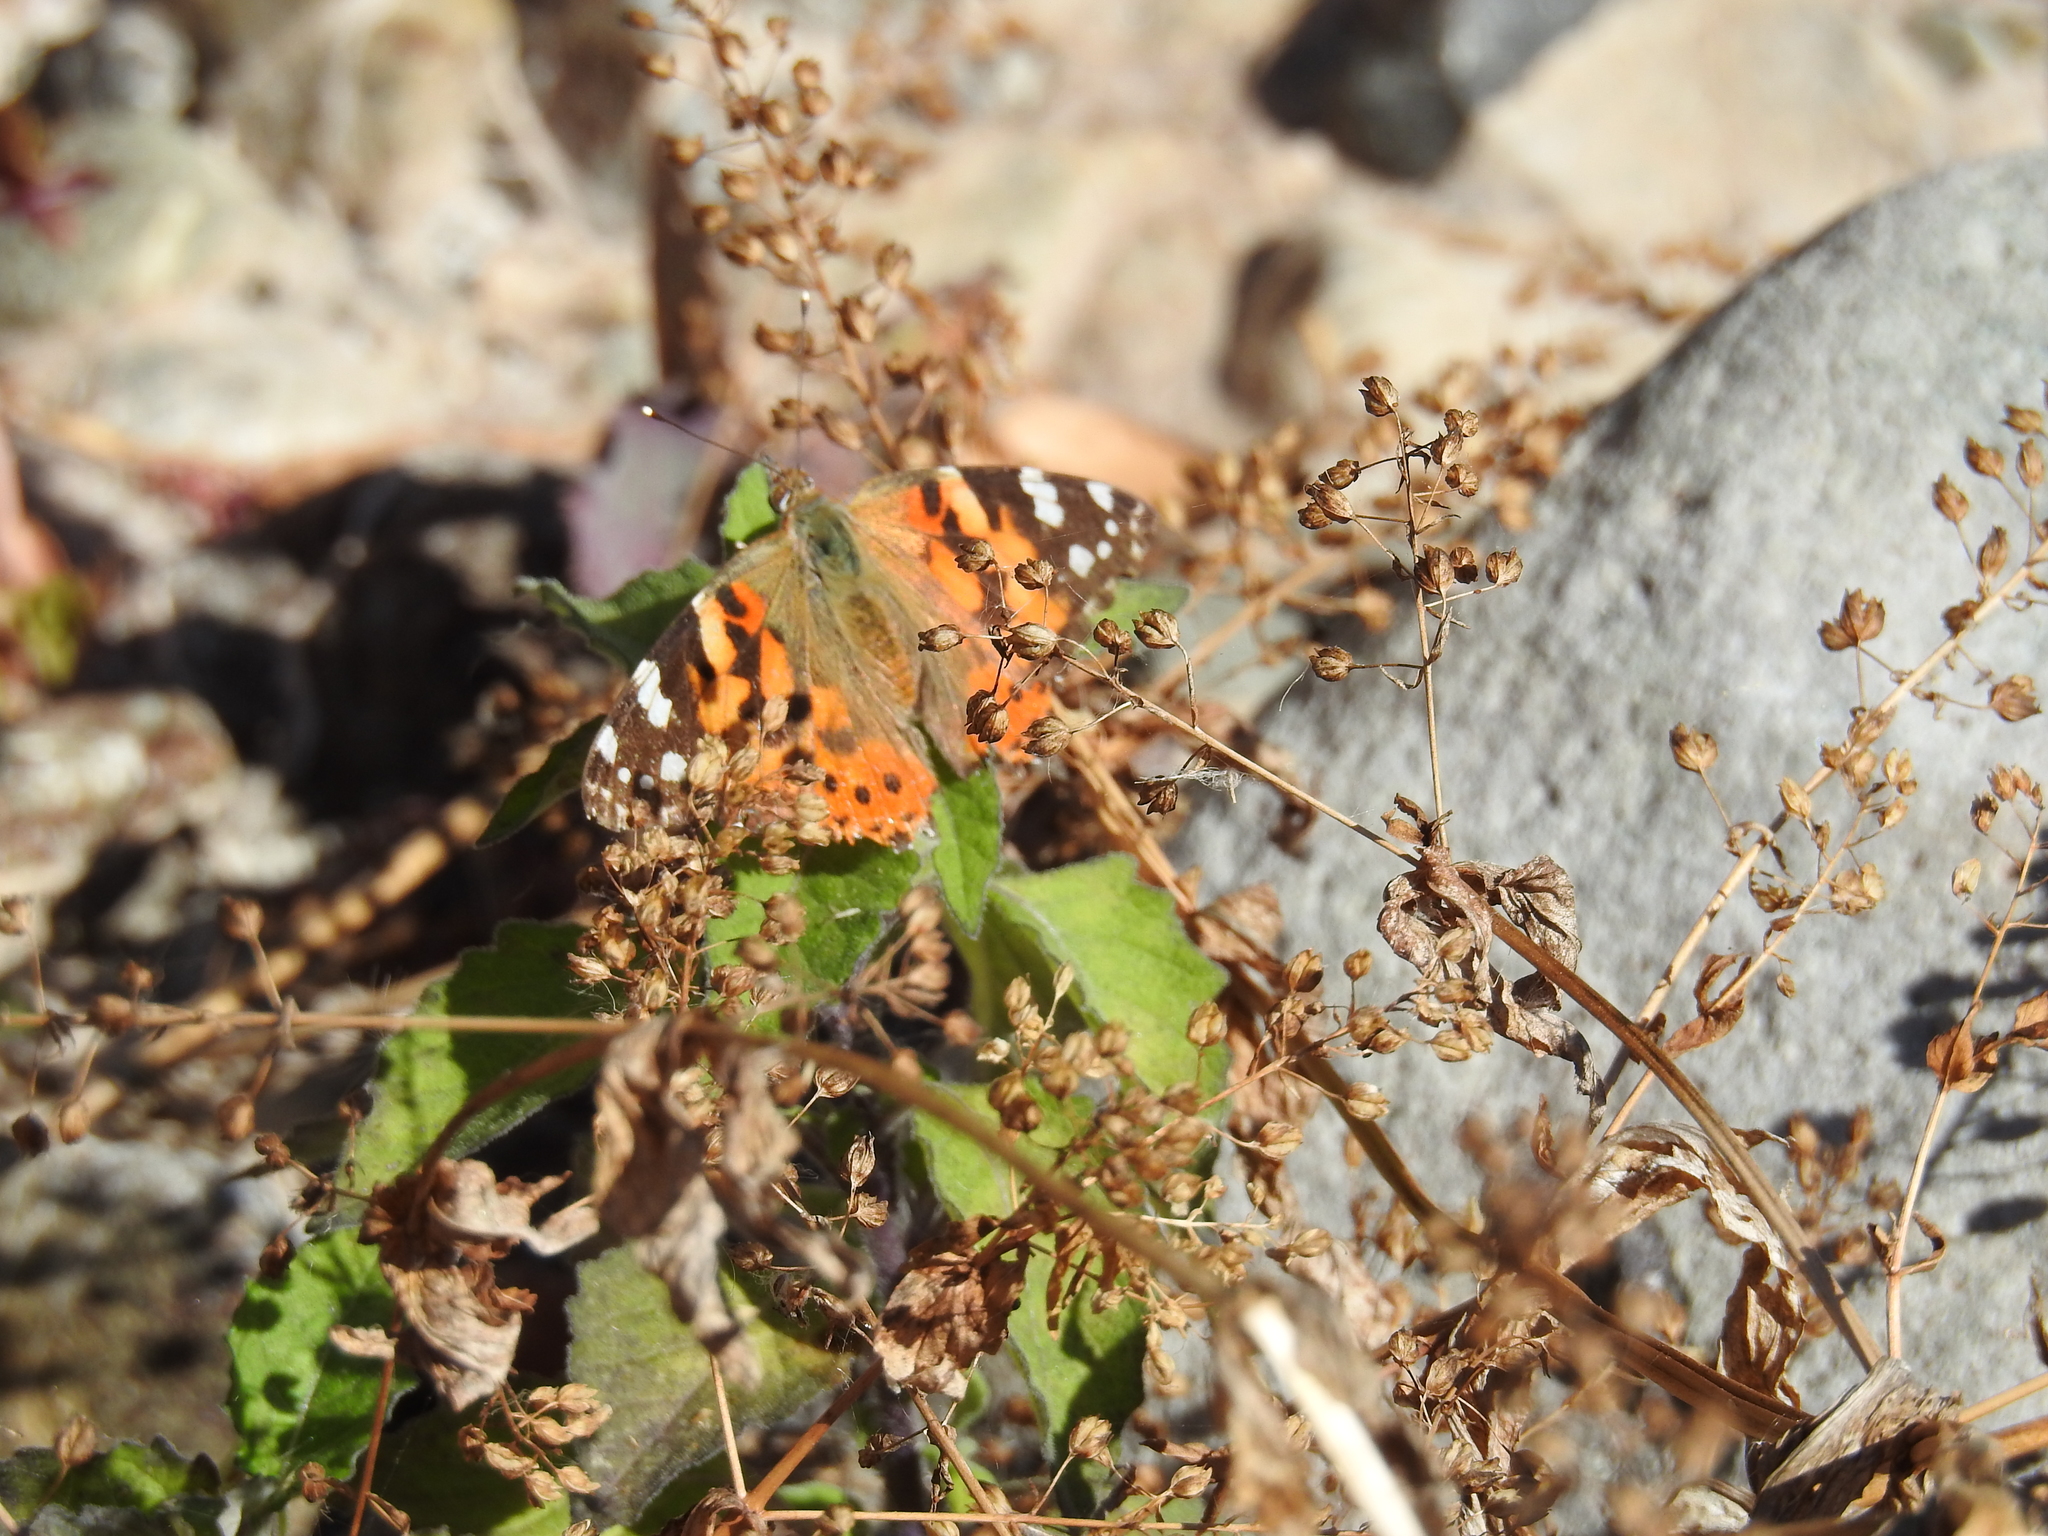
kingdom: Animalia
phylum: Arthropoda
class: Insecta
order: Lepidoptera
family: Nymphalidae
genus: Vanessa
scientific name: Vanessa cardui
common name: Painted lady
